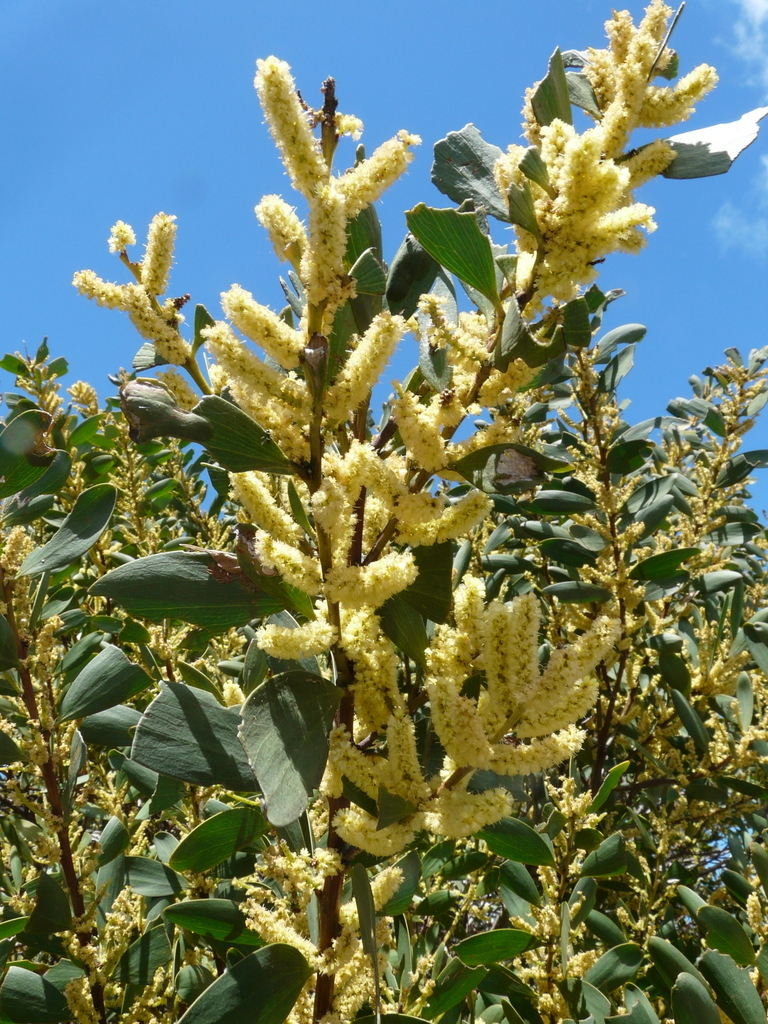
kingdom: Plantae
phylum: Tracheophyta
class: Magnoliopsida
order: Fabales
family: Fabaceae
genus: Acacia
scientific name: Acacia longifolia
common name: Sydney golden wattle
